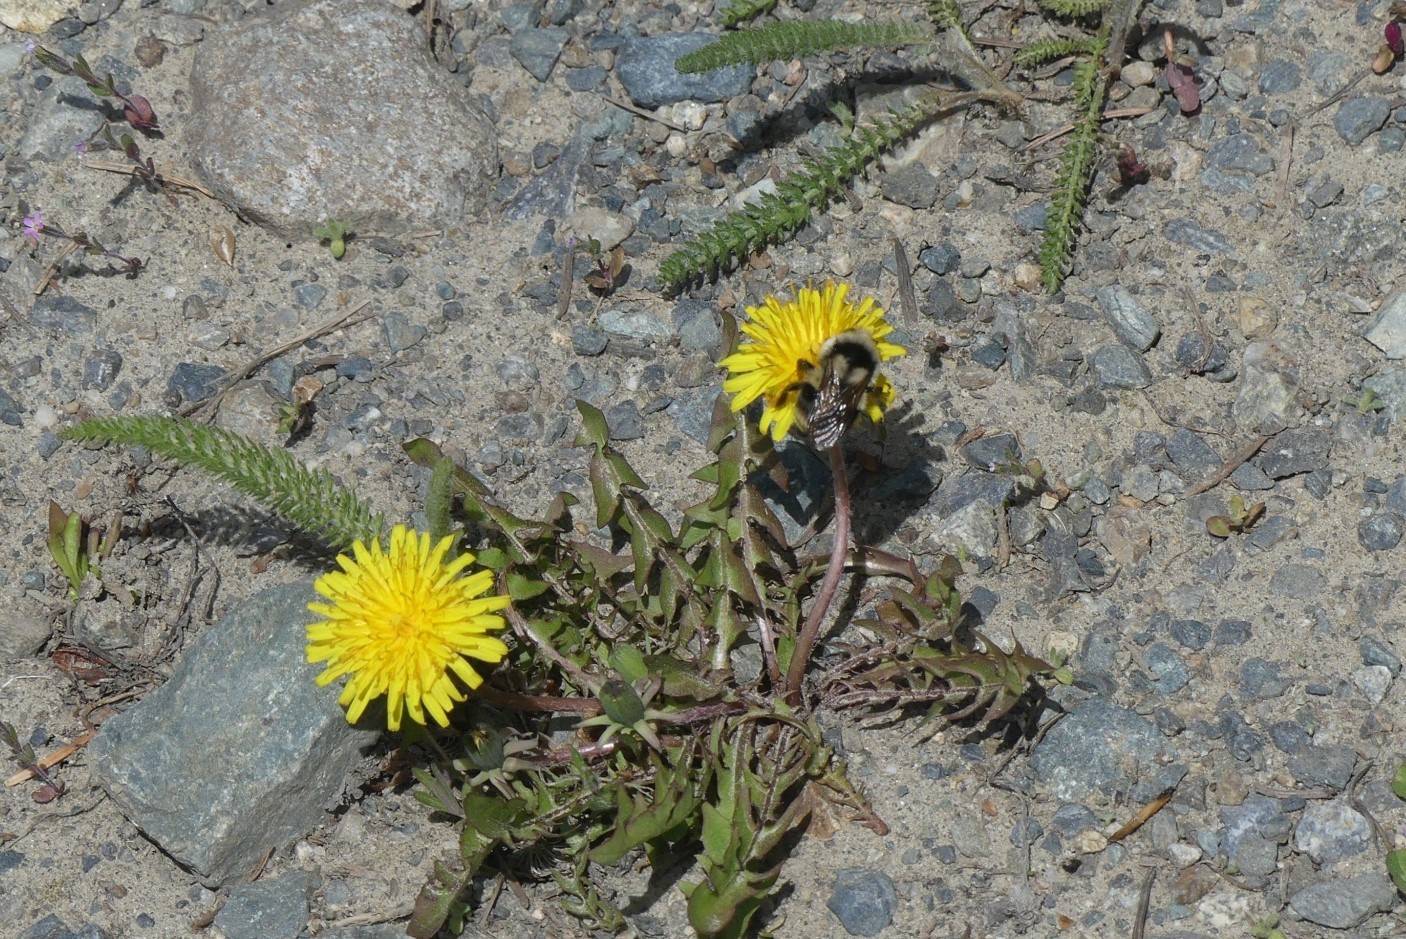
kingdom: Animalia
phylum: Arthropoda
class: Insecta
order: Hymenoptera
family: Apidae
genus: Bombus
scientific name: Bombus vancouverensis
